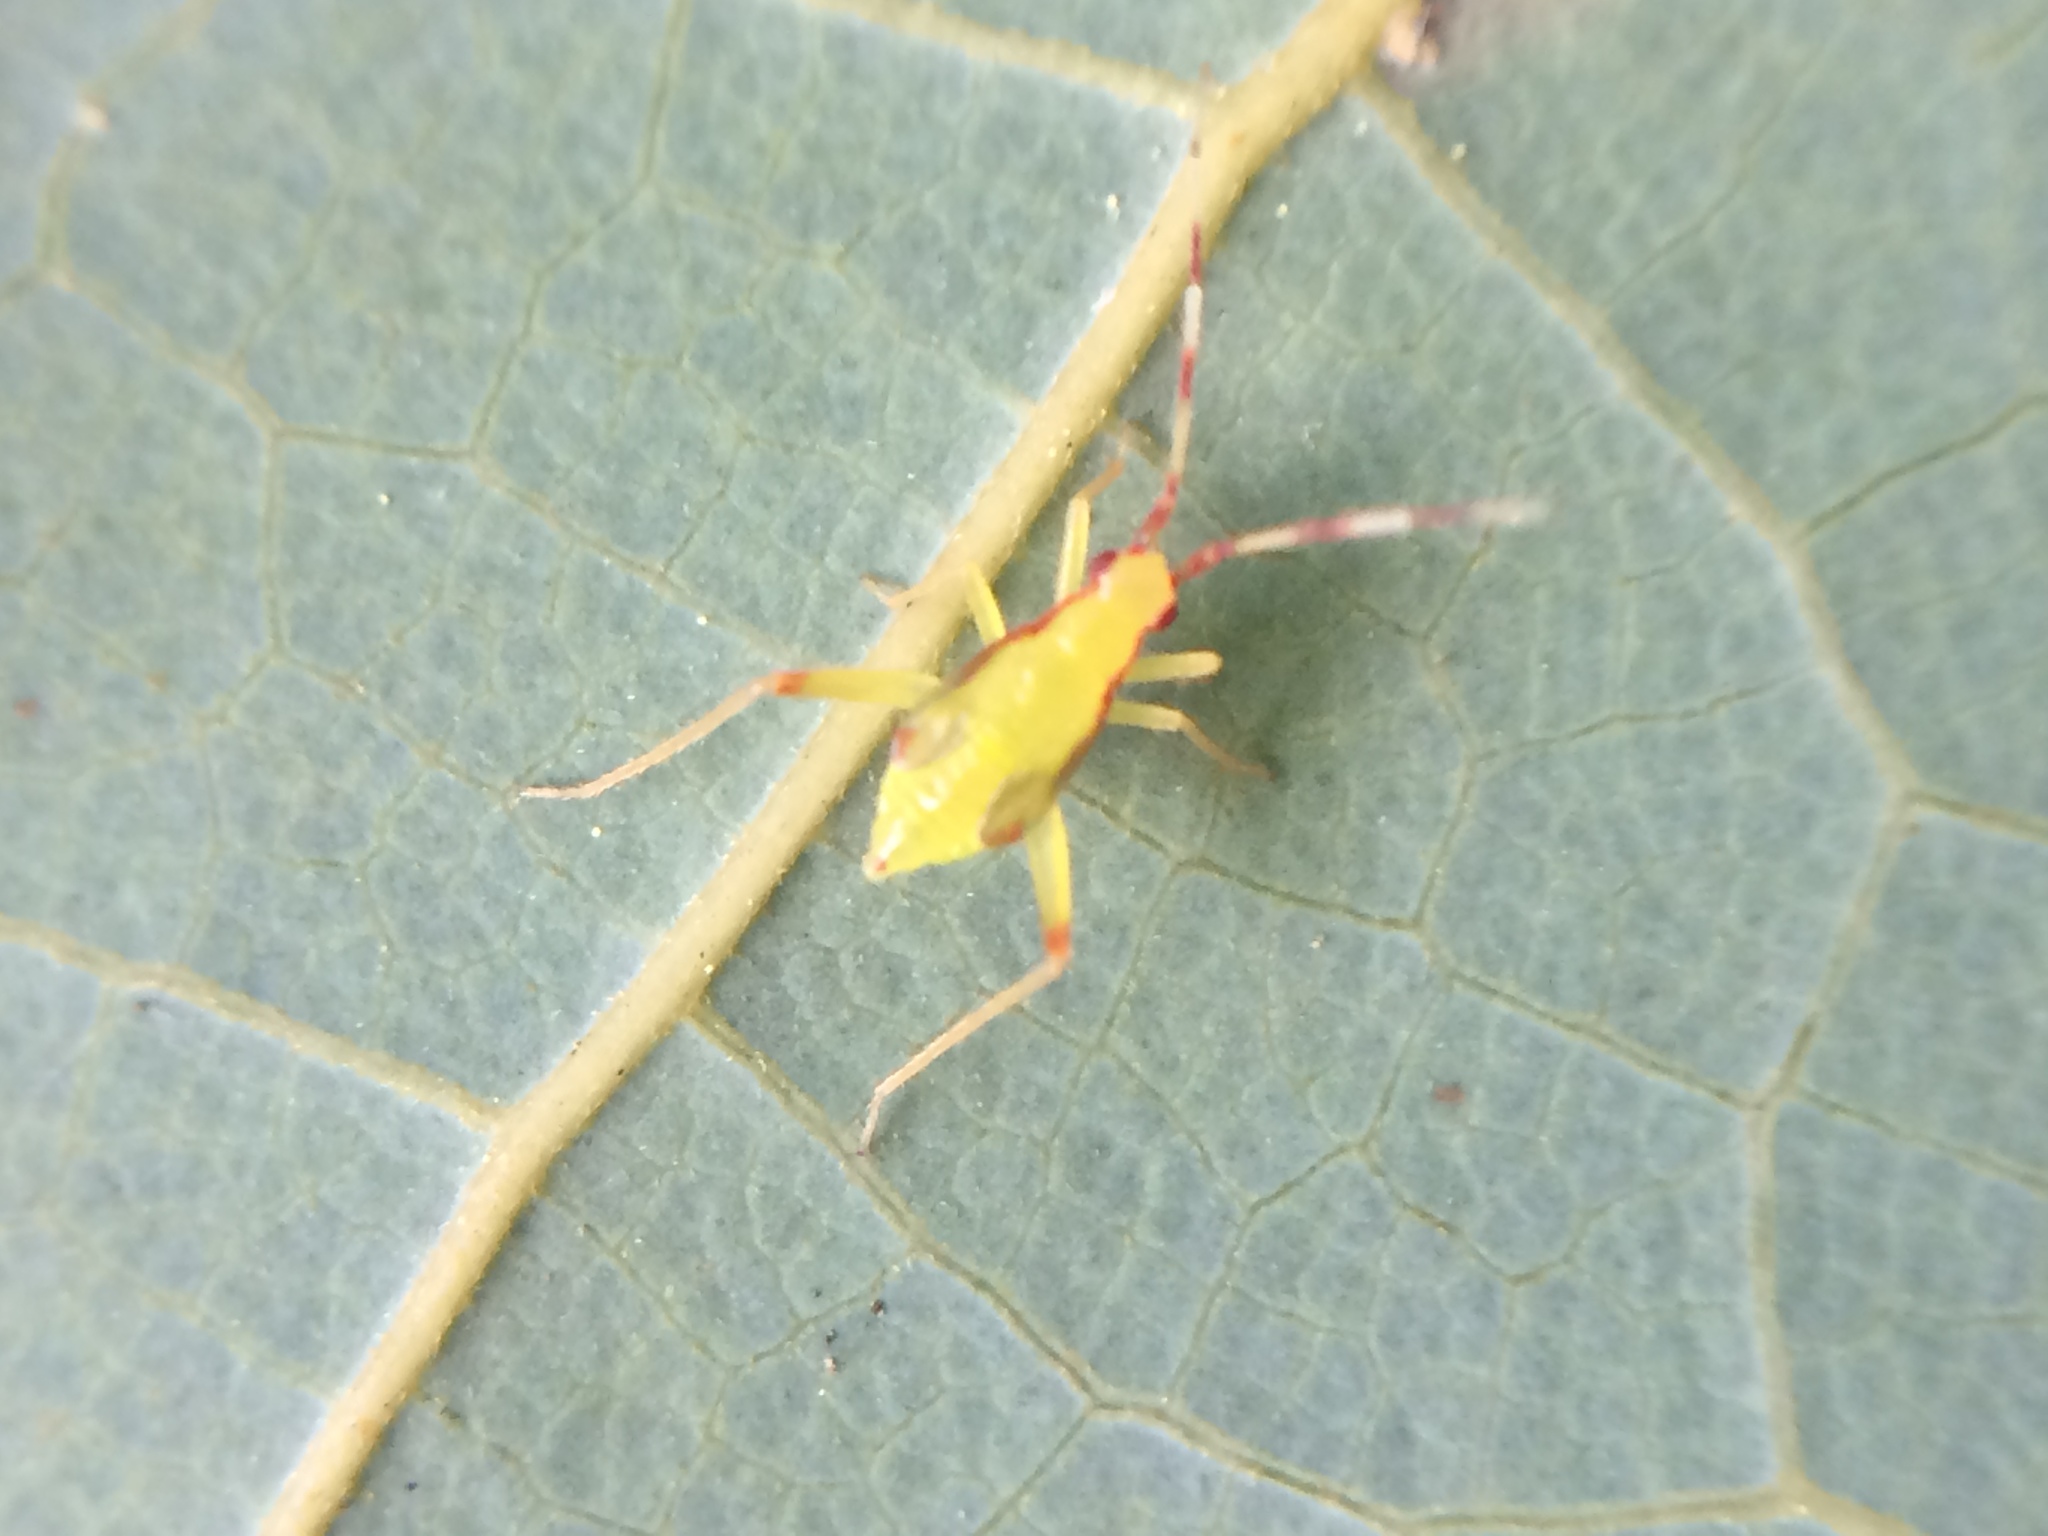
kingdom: Animalia
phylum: Arthropoda
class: Insecta
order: Hemiptera
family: Miridae
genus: Campyloneura
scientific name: Campyloneura virgula
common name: Predatory bug
